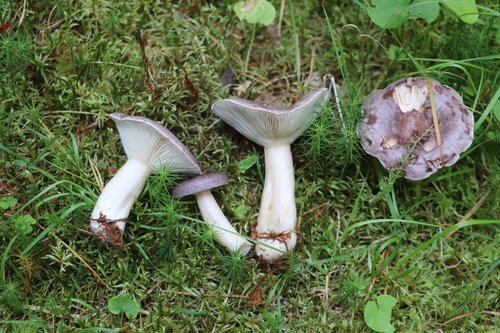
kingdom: Fungi
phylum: Basidiomycota
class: Agaricomycetes
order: Russulales
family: Russulaceae
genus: Lactarius
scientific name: Lactarius trivialis
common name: Tacked milkcap
